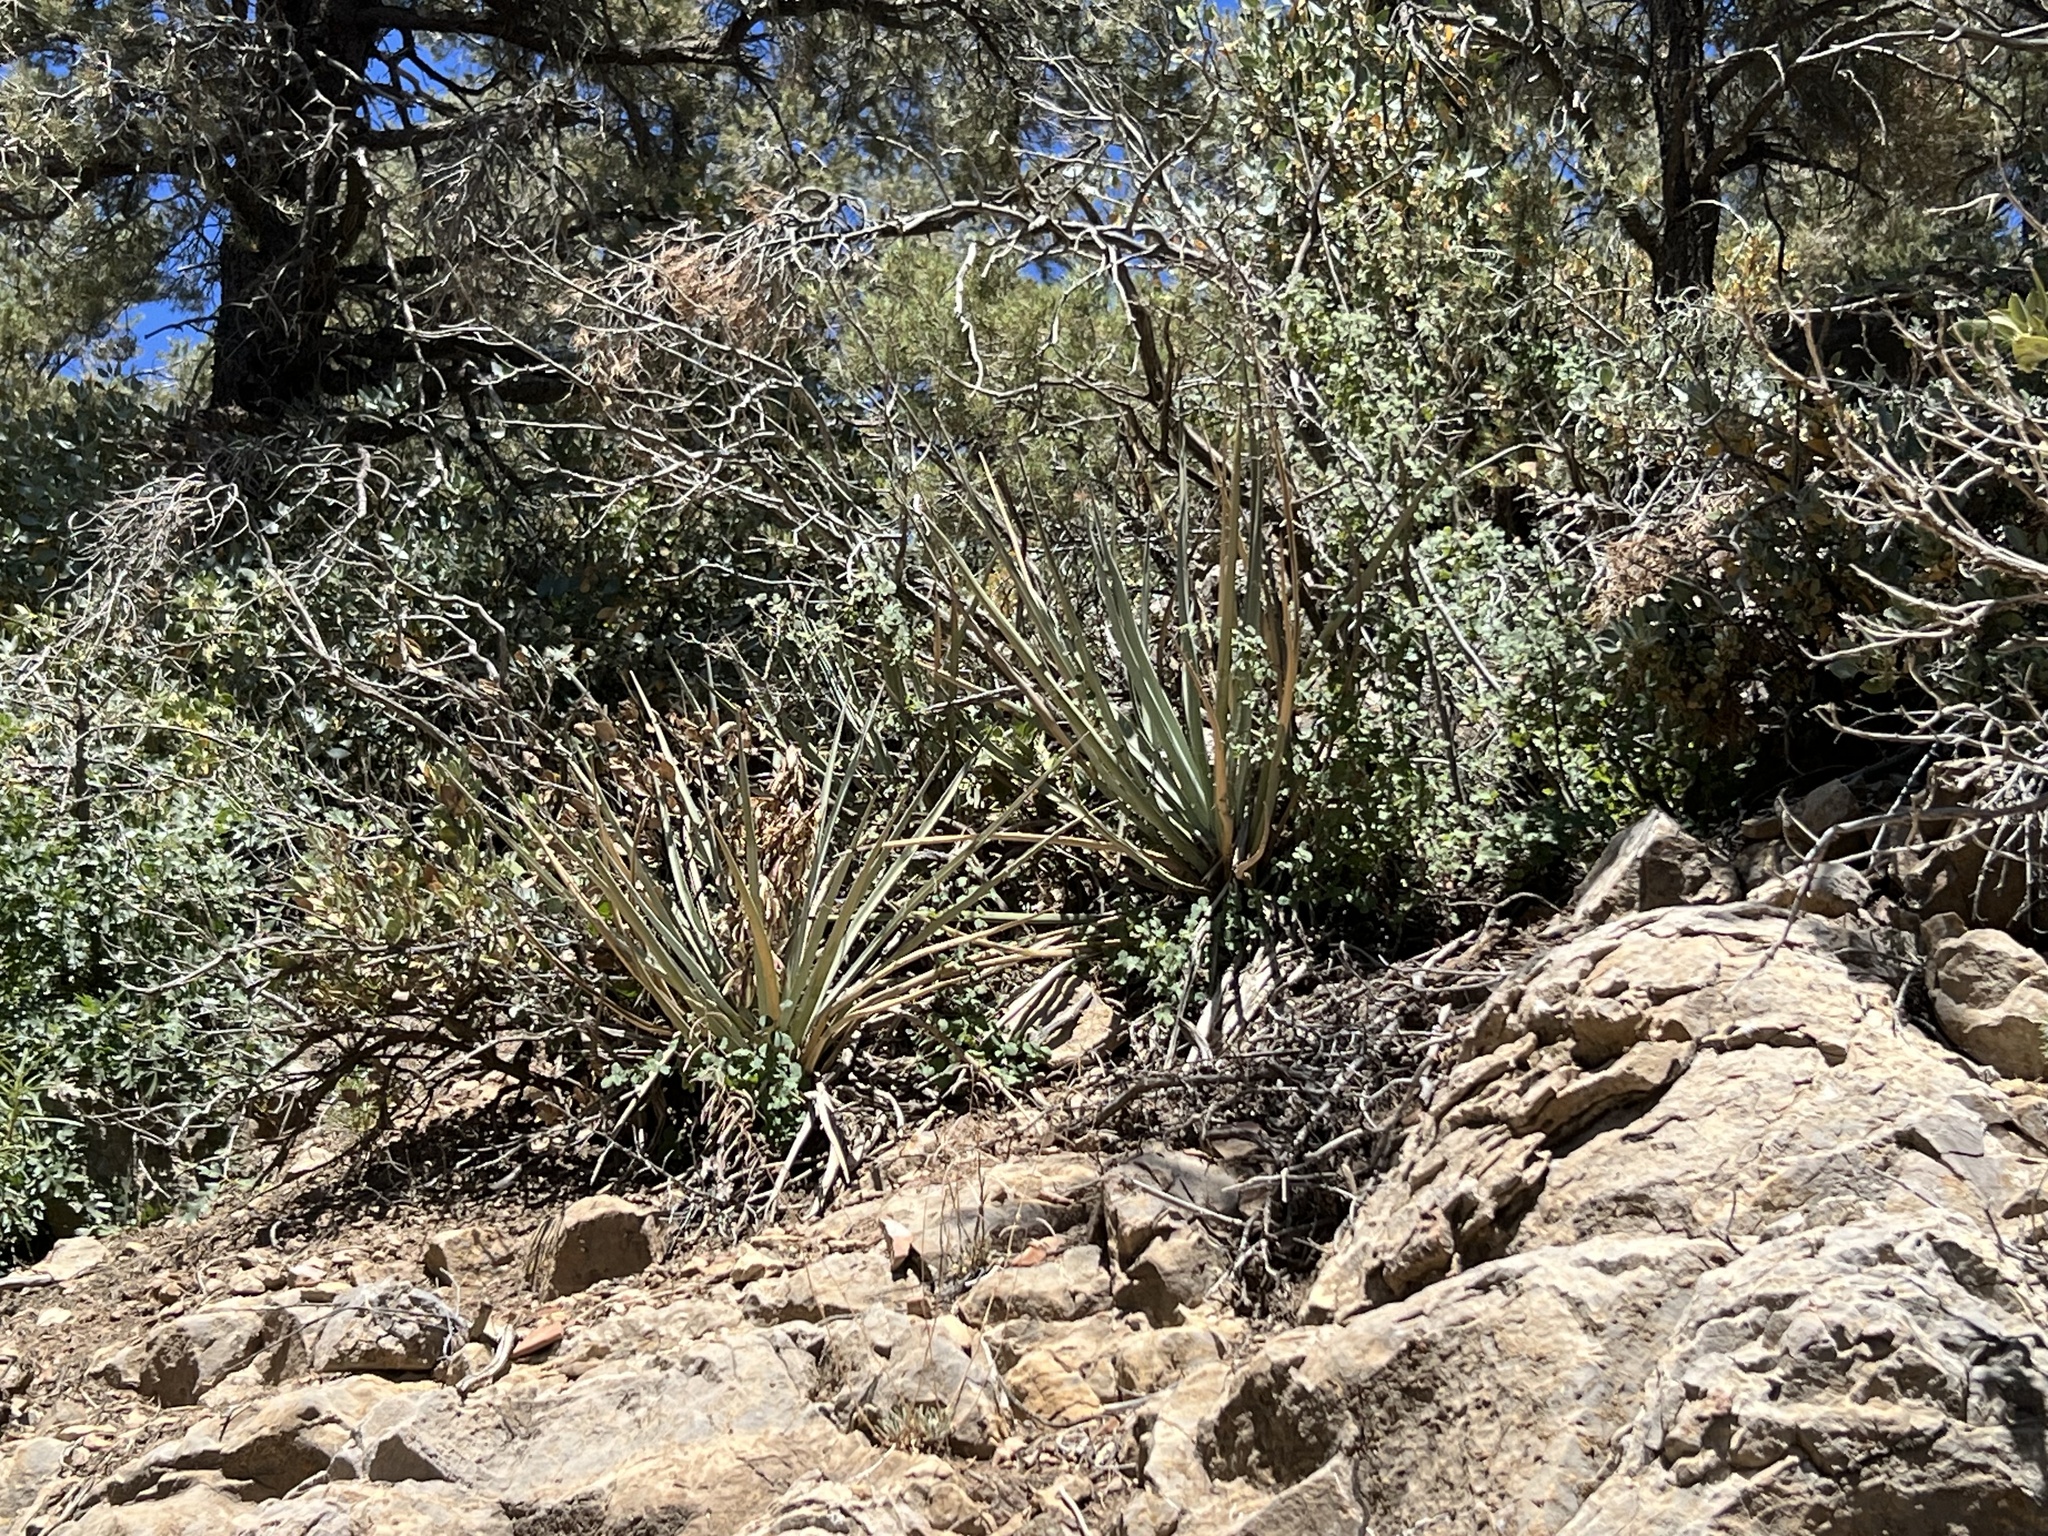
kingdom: Plantae
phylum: Tracheophyta
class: Liliopsida
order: Asparagales
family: Asparagaceae
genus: Yucca
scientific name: Yucca baccata
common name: Banana yucca
